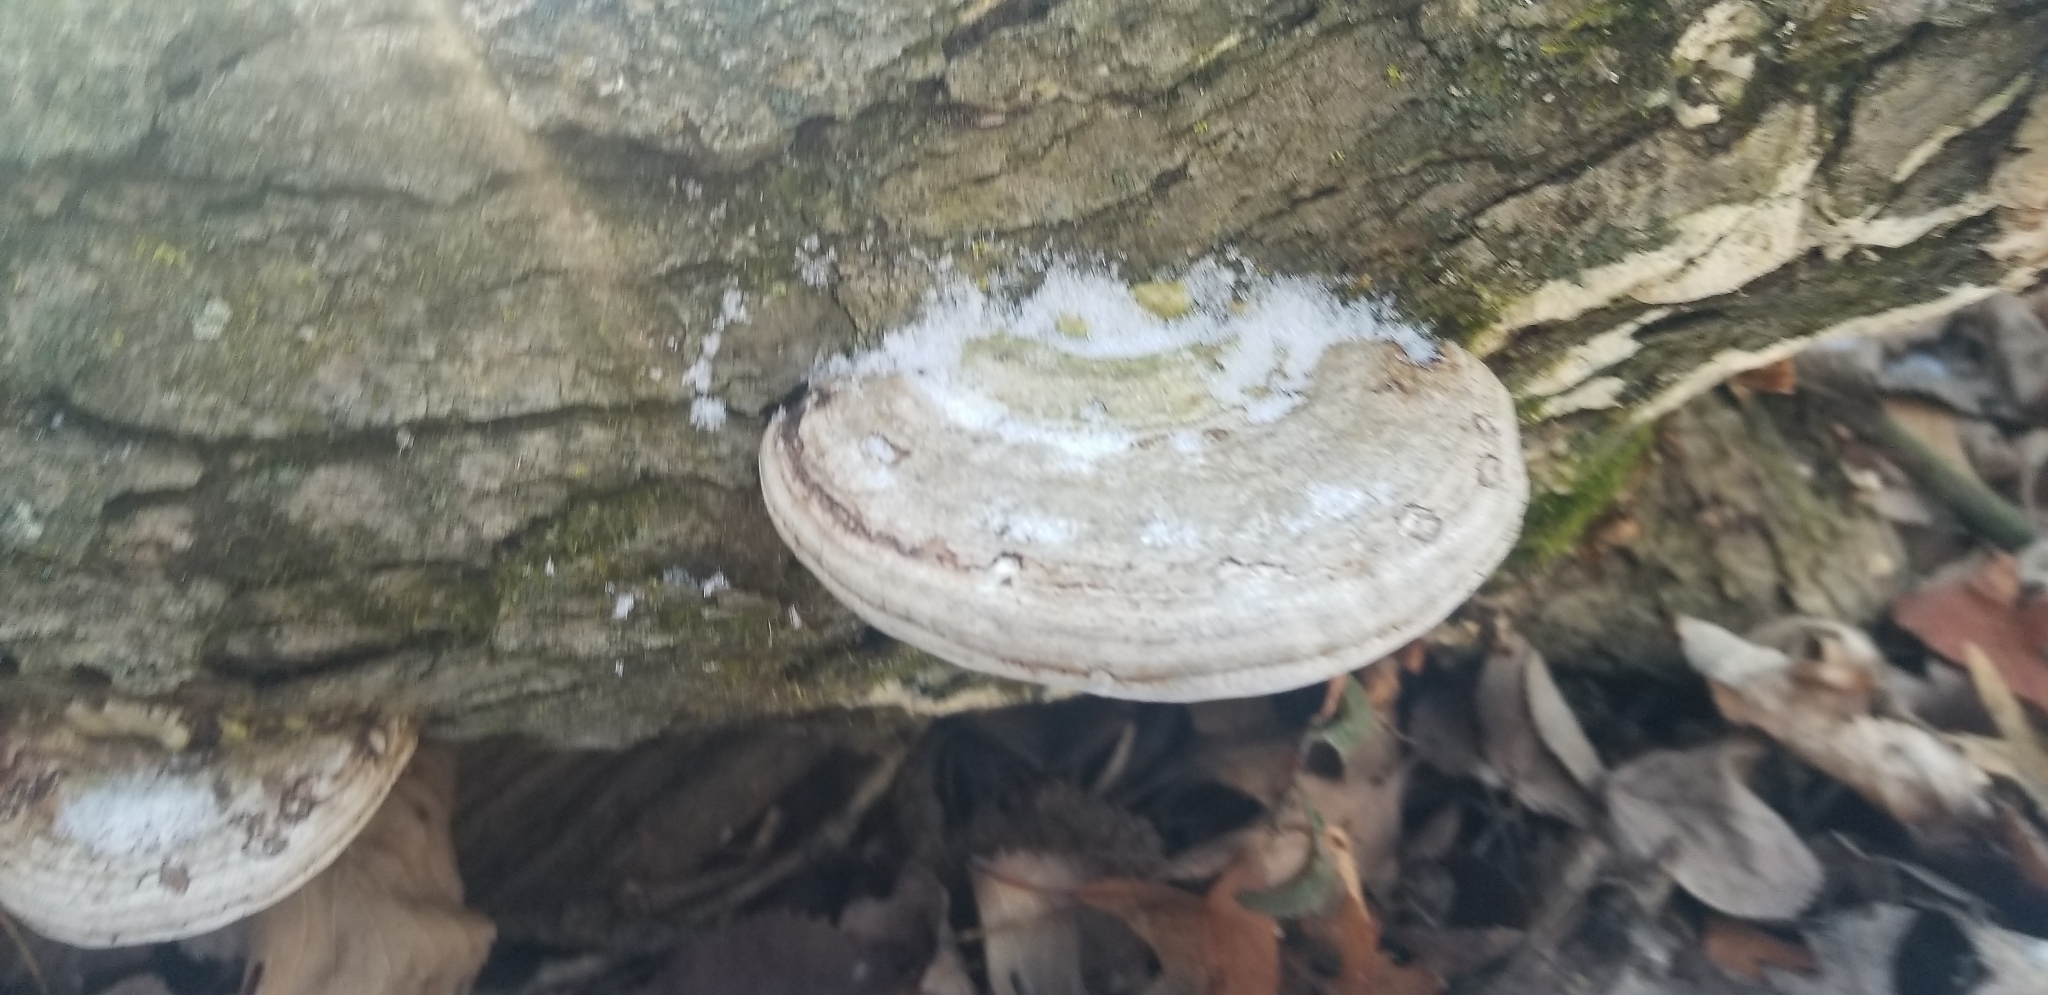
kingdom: Fungi
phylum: Basidiomycota
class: Agaricomycetes
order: Polyporales
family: Polyporaceae
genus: Ganoderma
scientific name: Ganoderma
